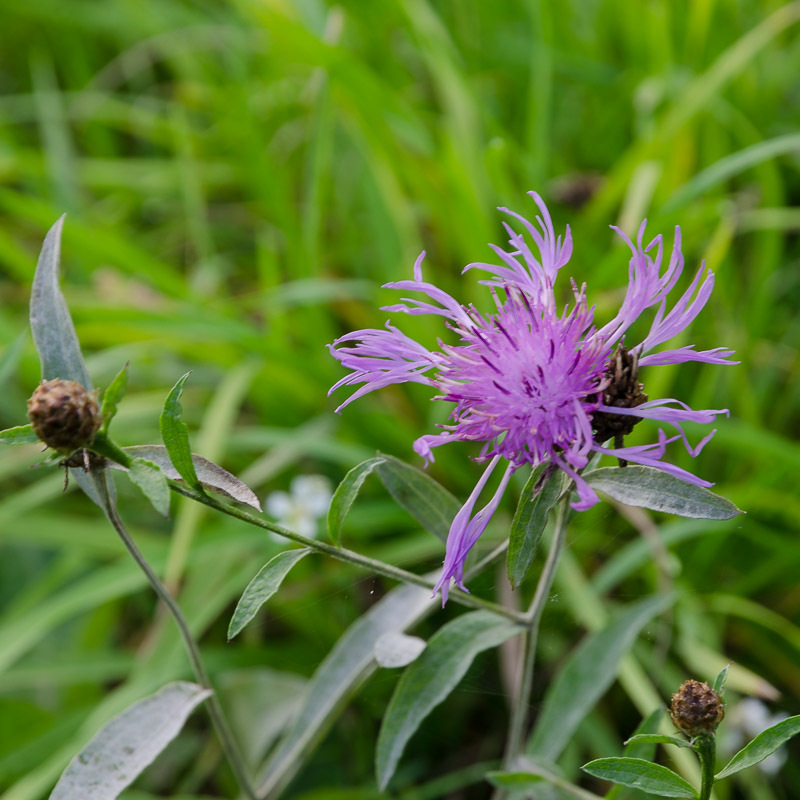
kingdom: Plantae
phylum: Tracheophyta
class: Magnoliopsida
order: Asterales
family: Asteraceae
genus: Centaurea
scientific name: Centaurea jacea
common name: Brown knapweed
